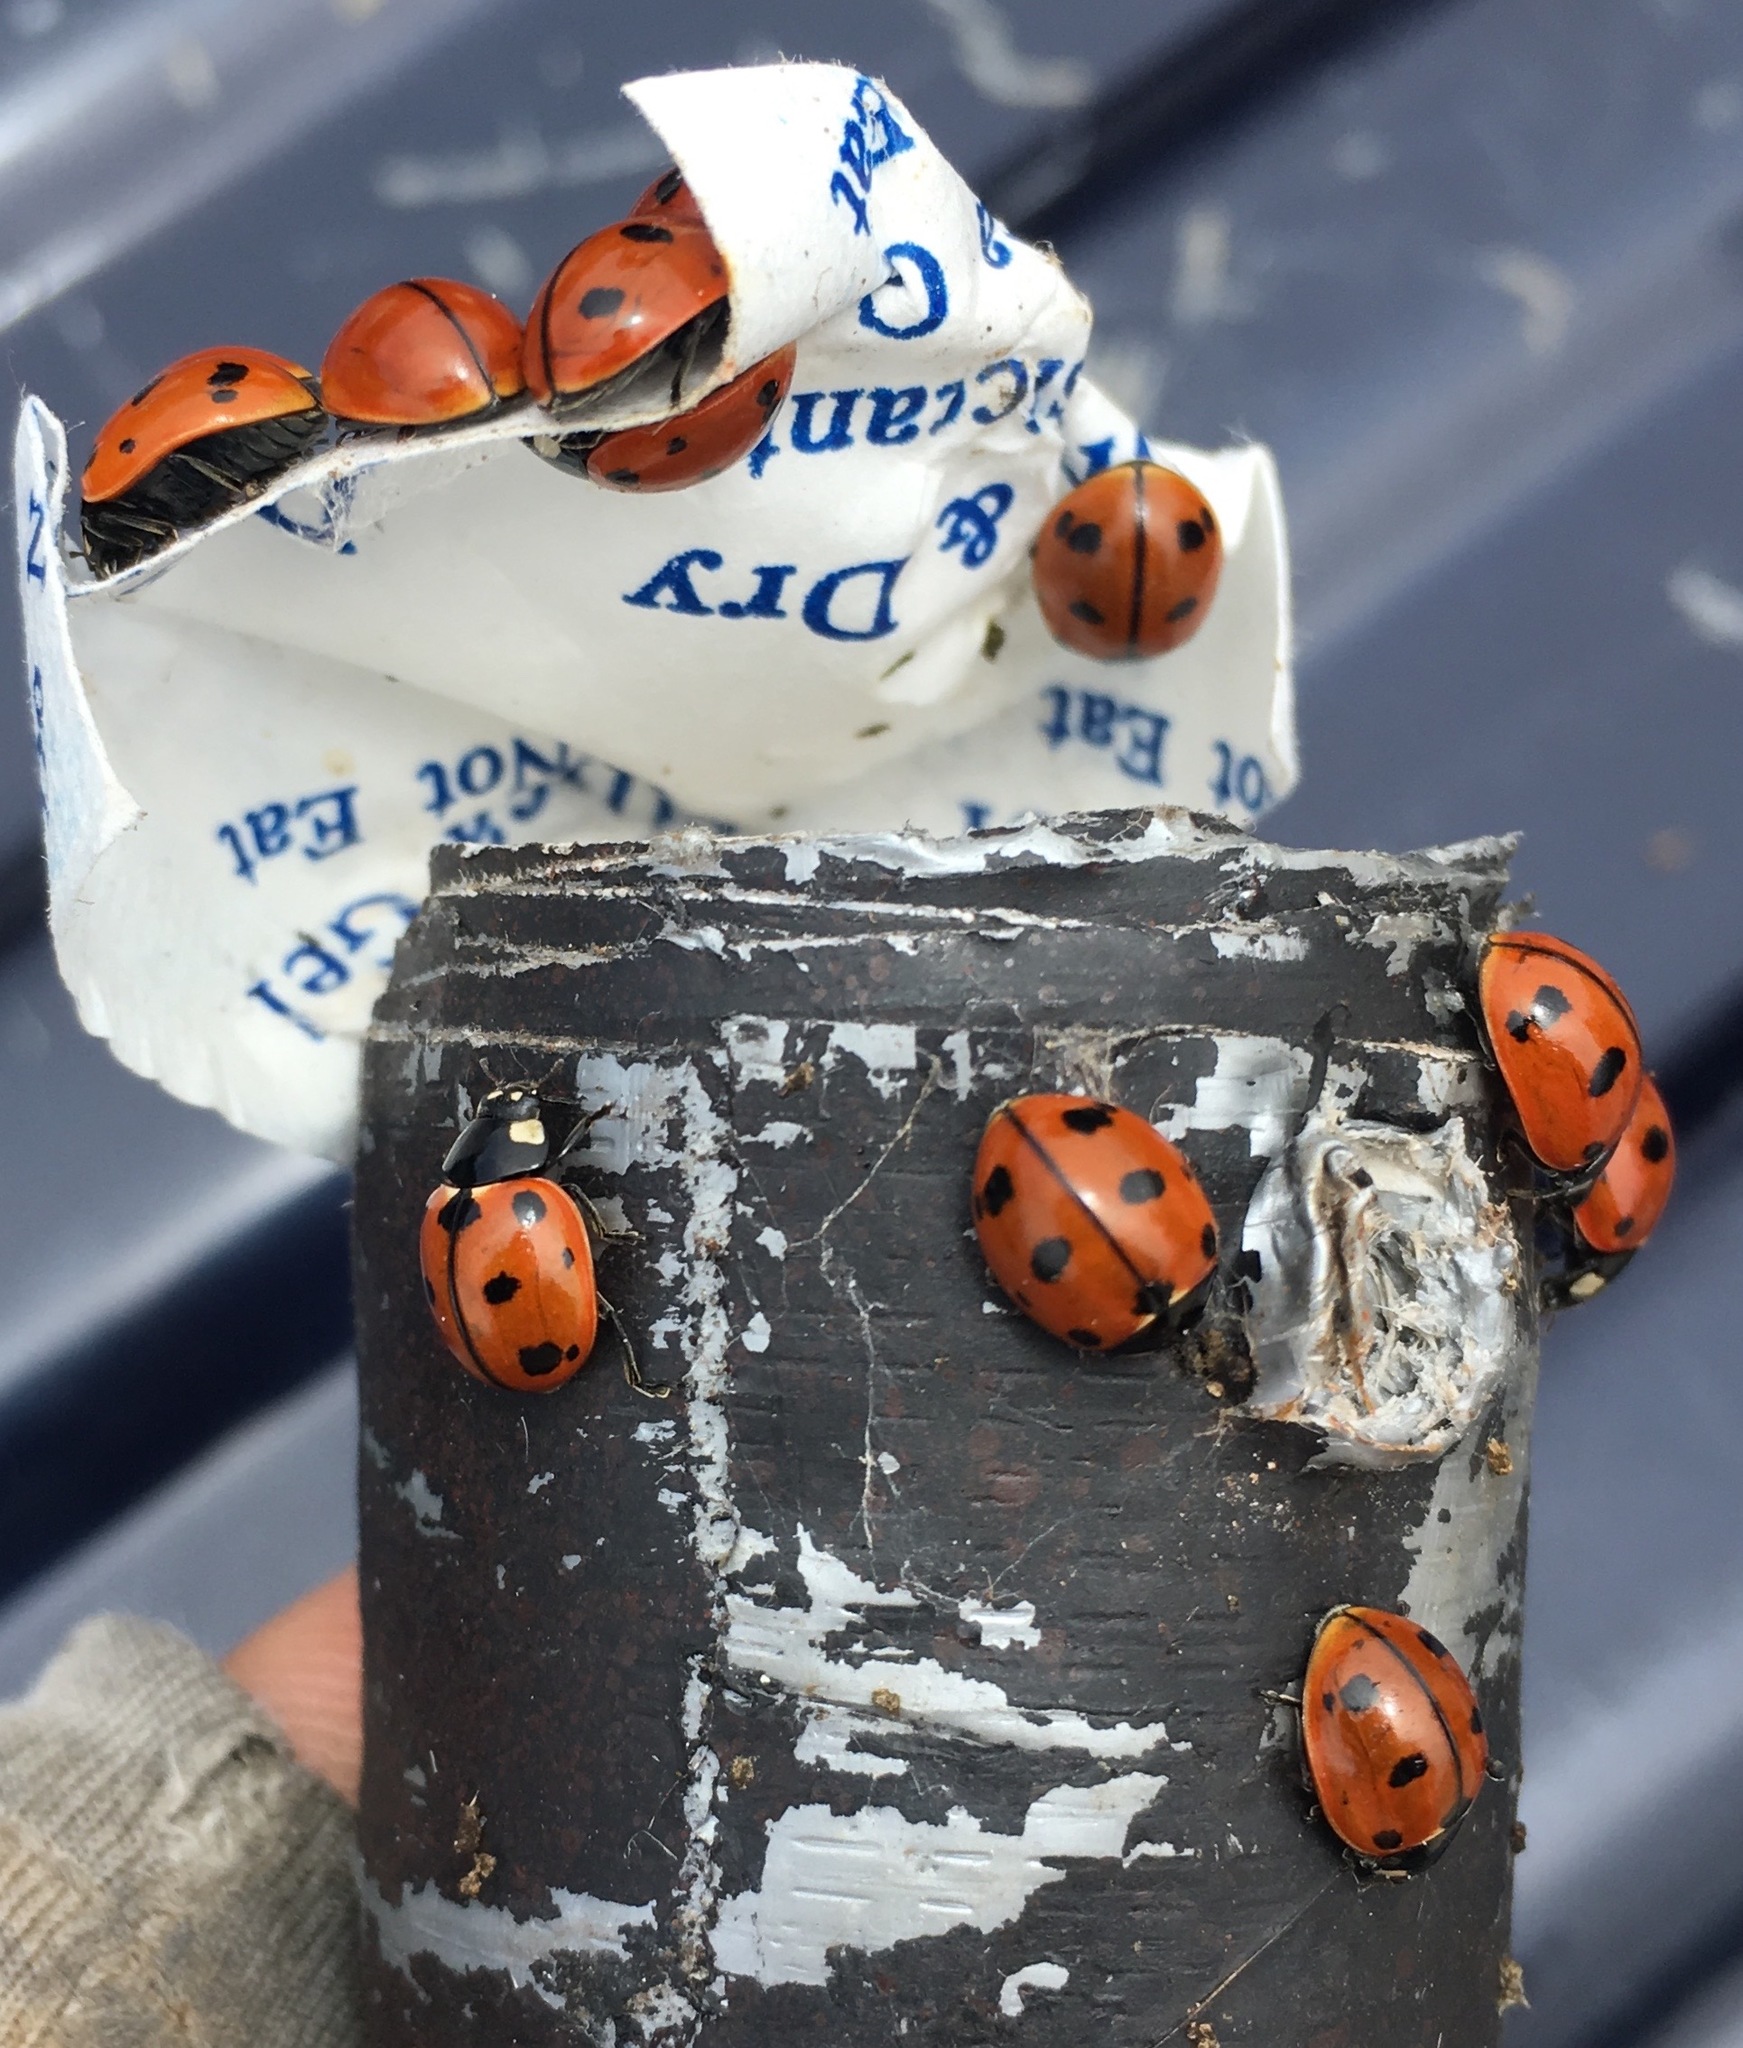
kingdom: Animalia
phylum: Arthropoda
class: Insecta
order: Coleoptera
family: Coccinellidae
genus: Coccinella
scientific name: Coccinella californica
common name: Lady beetle
